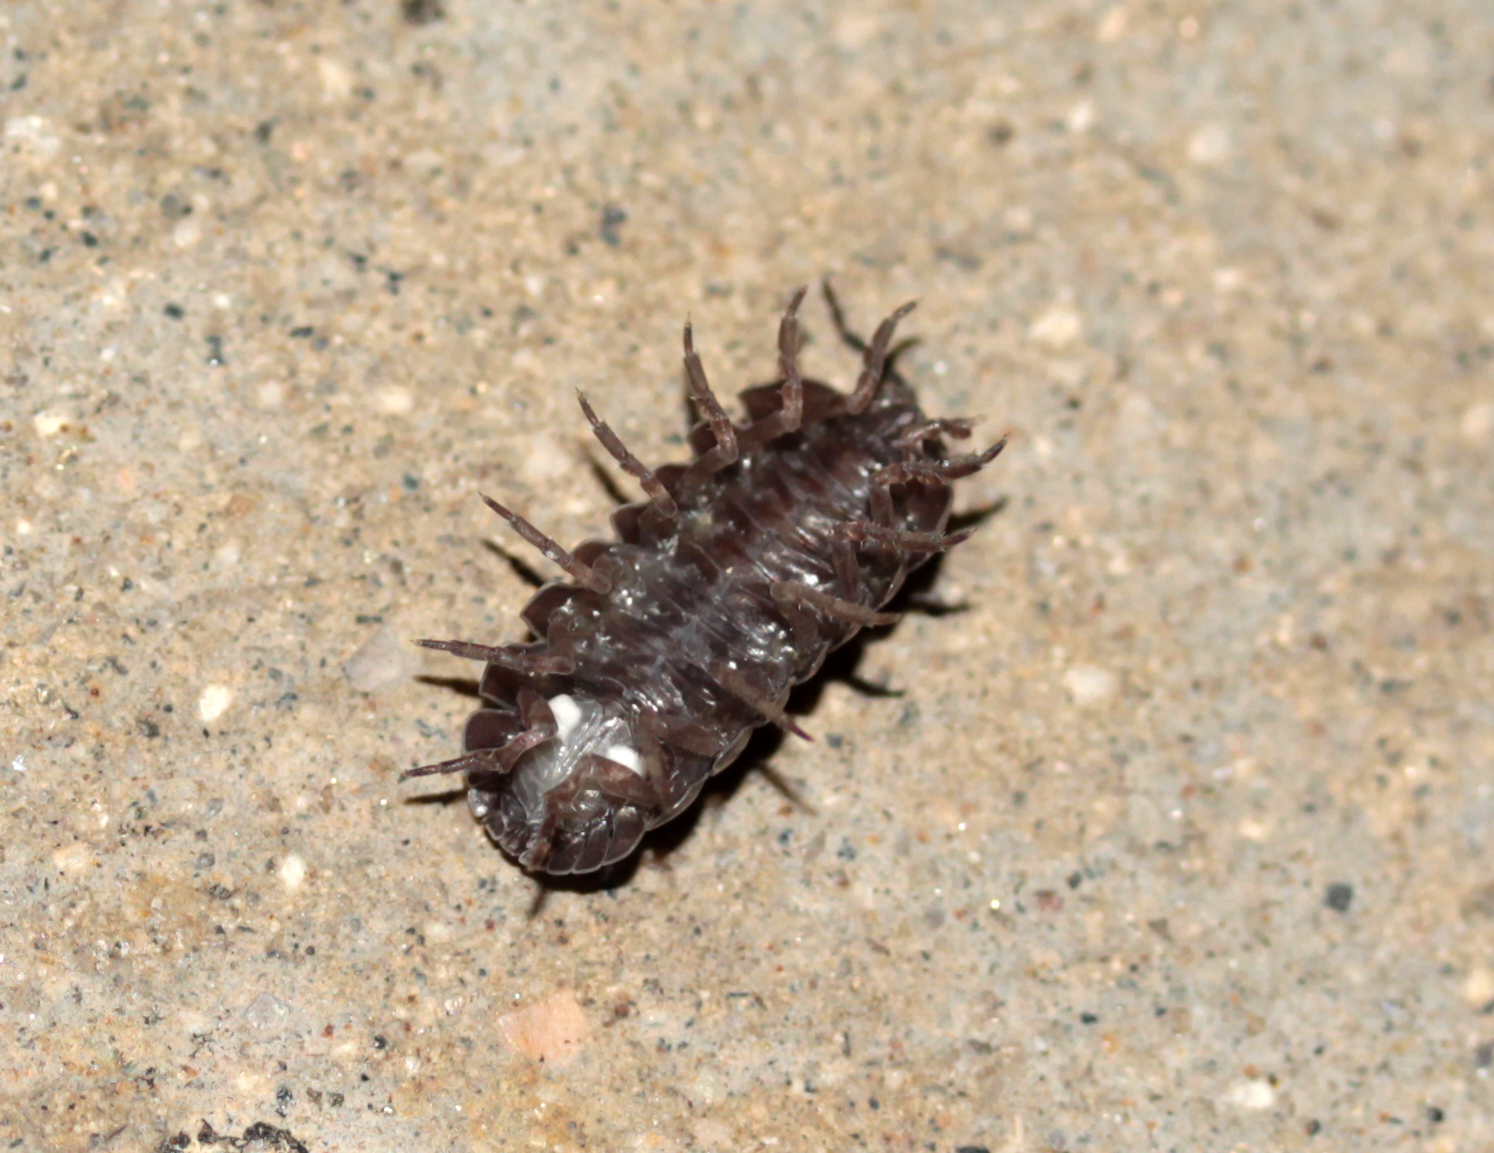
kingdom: Animalia
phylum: Arthropoda
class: Malacostraca
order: Isopoda
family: Armadillidiidae
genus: Armadillidium
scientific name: Armadillidium vulgare
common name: Common pill woodlouse
